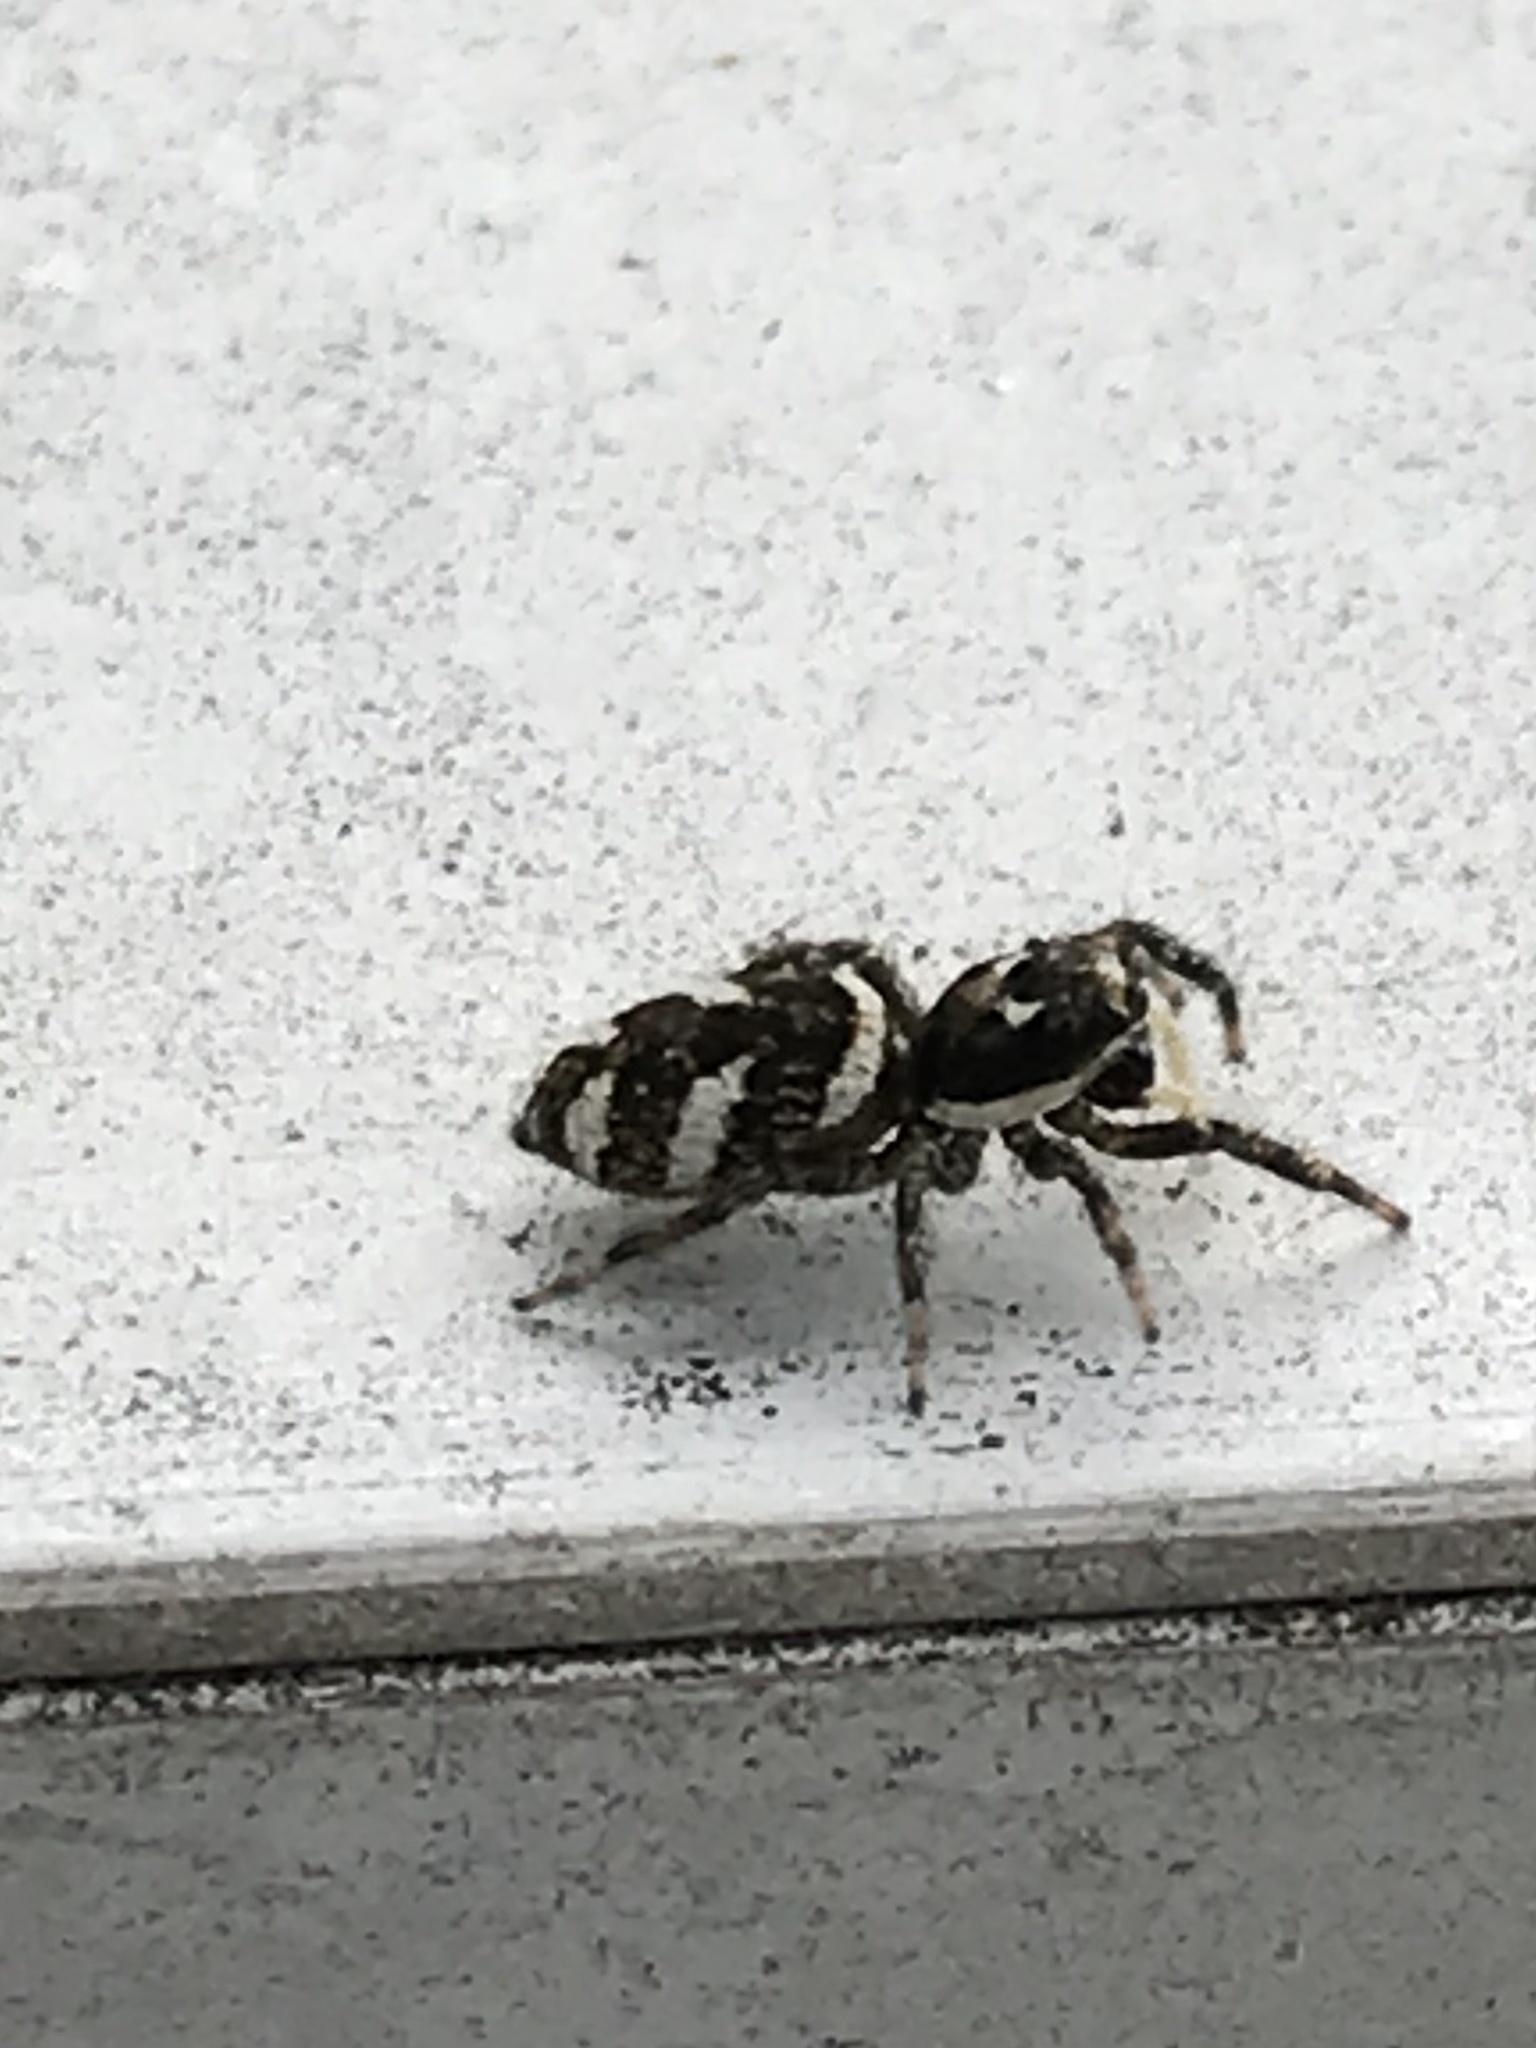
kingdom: Animalia
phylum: Arthropoda
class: Arachnida
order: Araneae
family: Salticidae
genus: Salticus
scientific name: Salticus scenicus
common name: Zebra jumper
